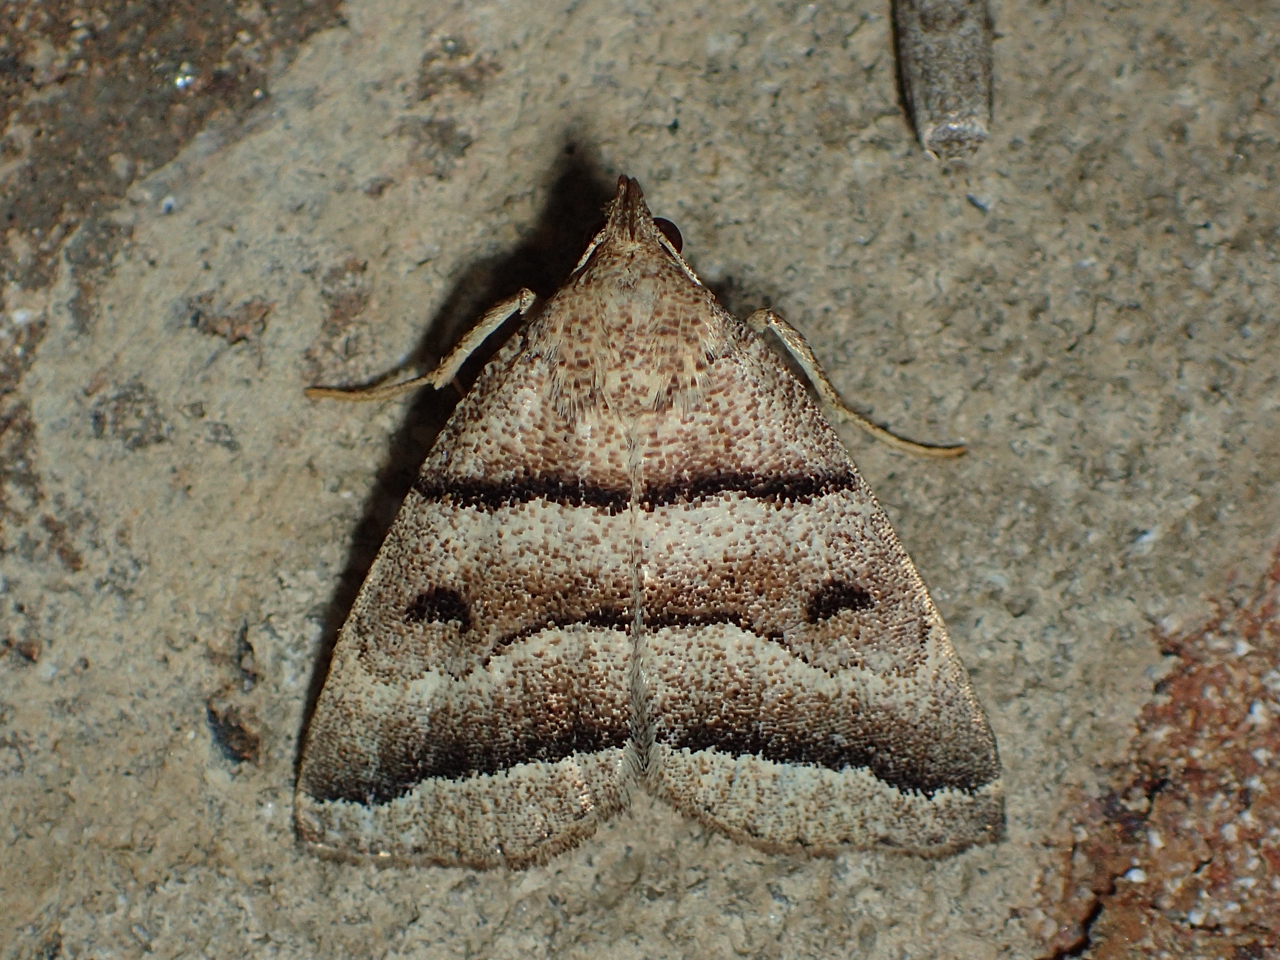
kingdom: Animalia
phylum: Arthropoda
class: Insecta
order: Lepidoptera
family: Erebidae
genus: Zanclognatha
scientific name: Zanclognatha atrilineella
